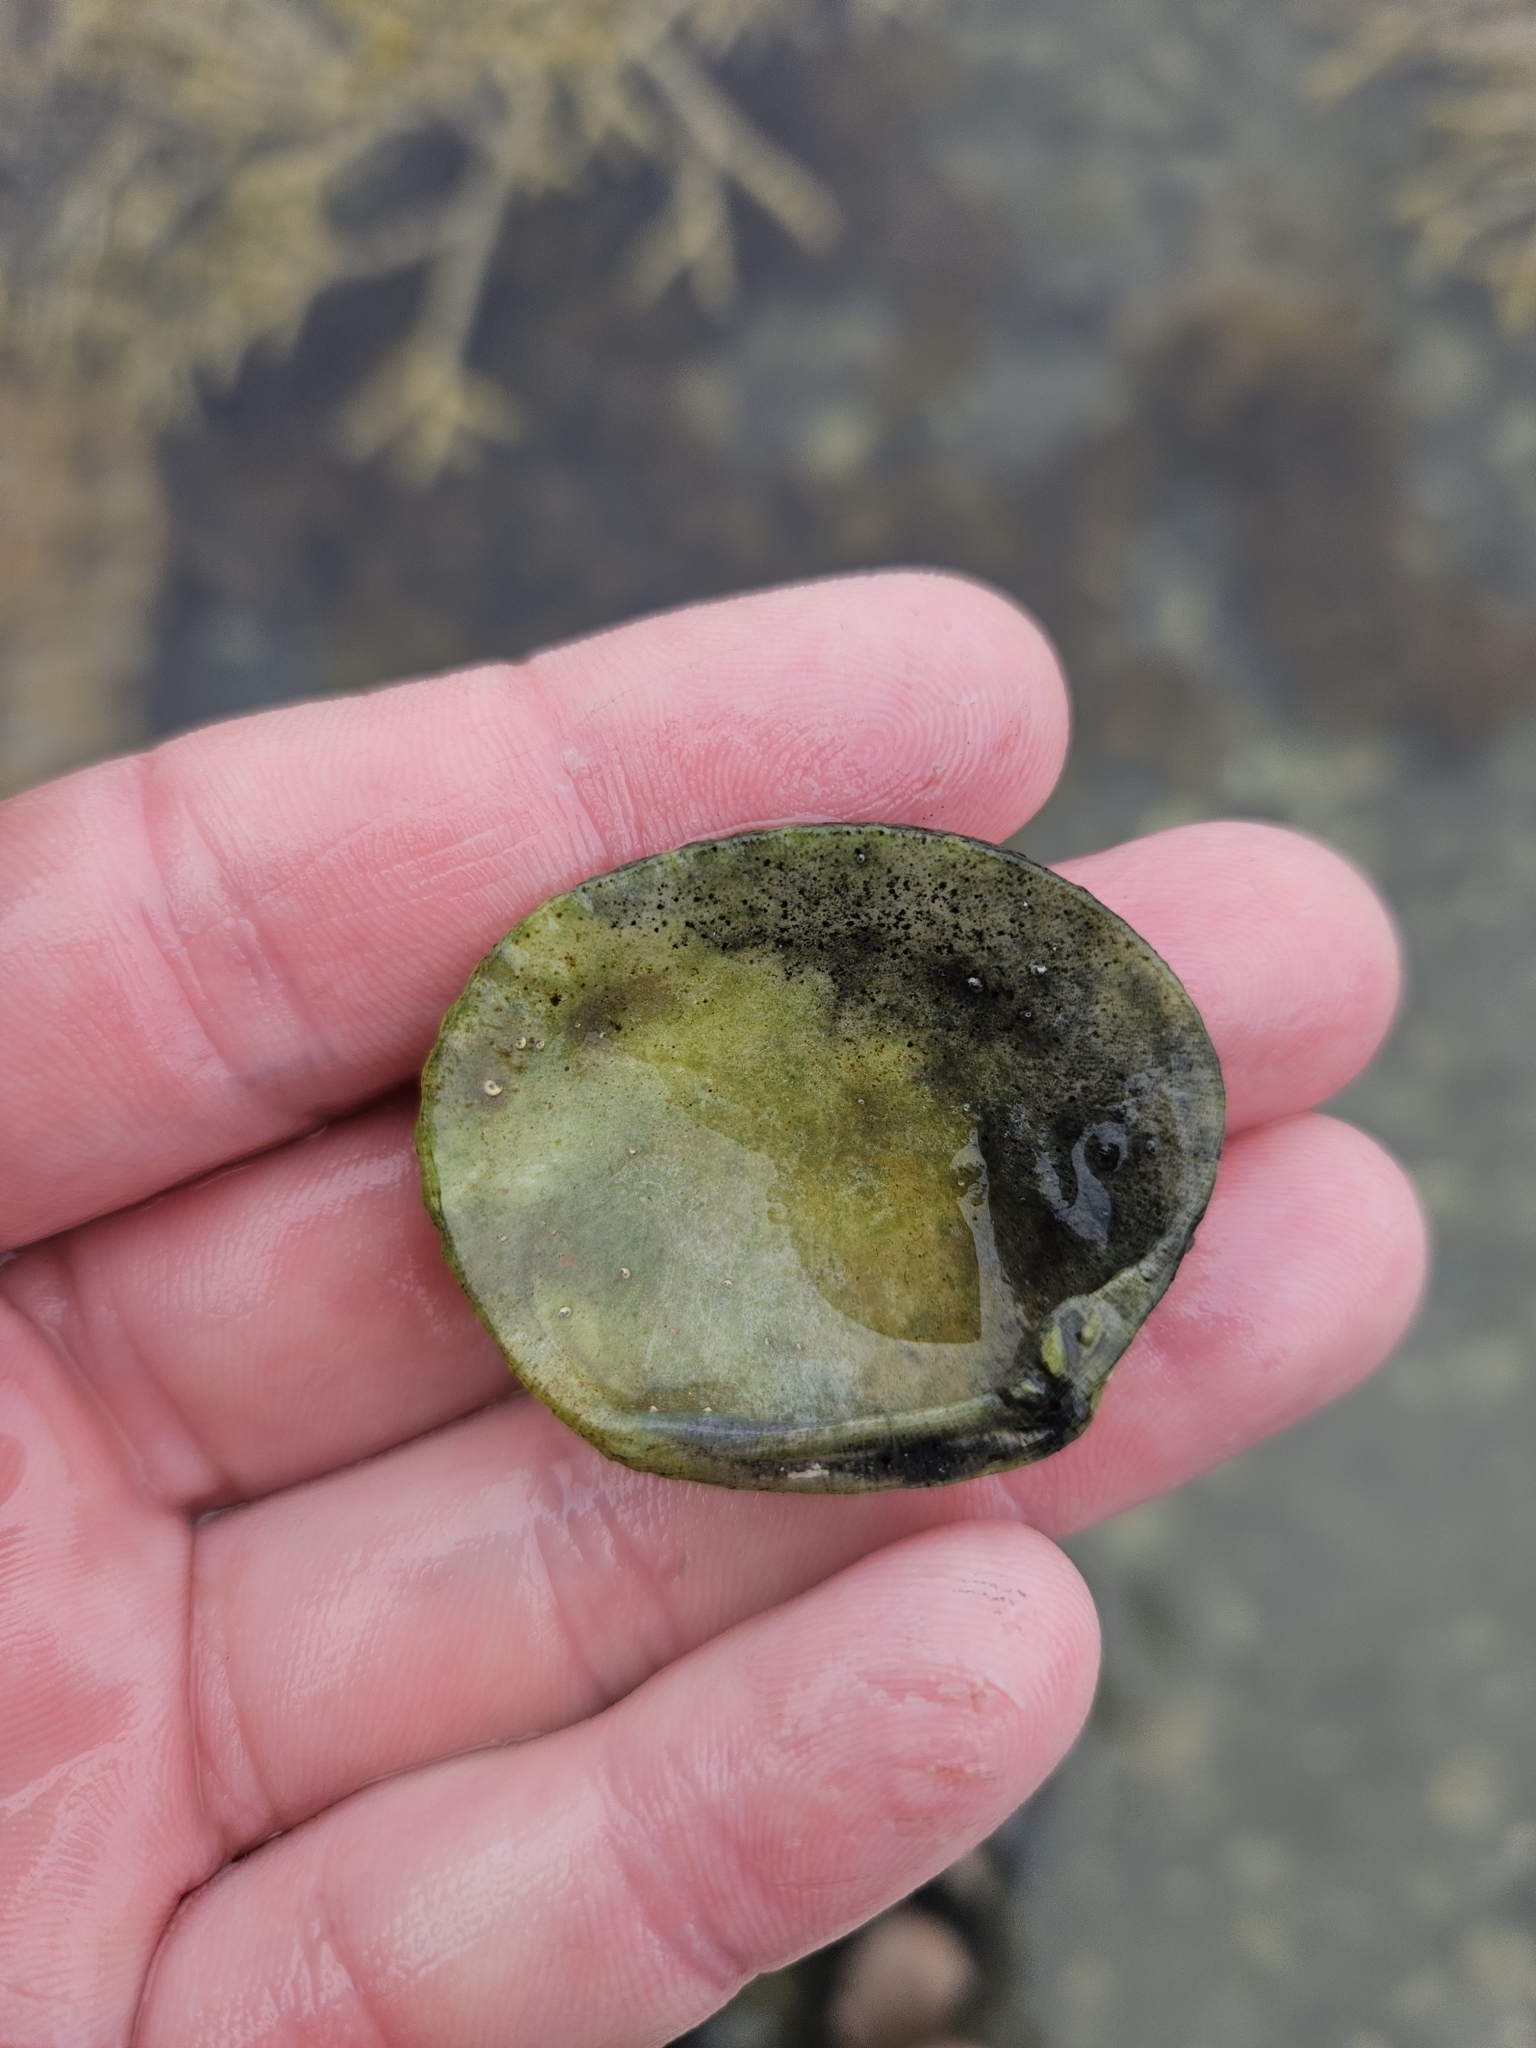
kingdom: Animalia
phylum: Mollusca
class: Bivalvia
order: Venerida
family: Veneridae
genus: Leukoma
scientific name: Leukoma crassicosta
